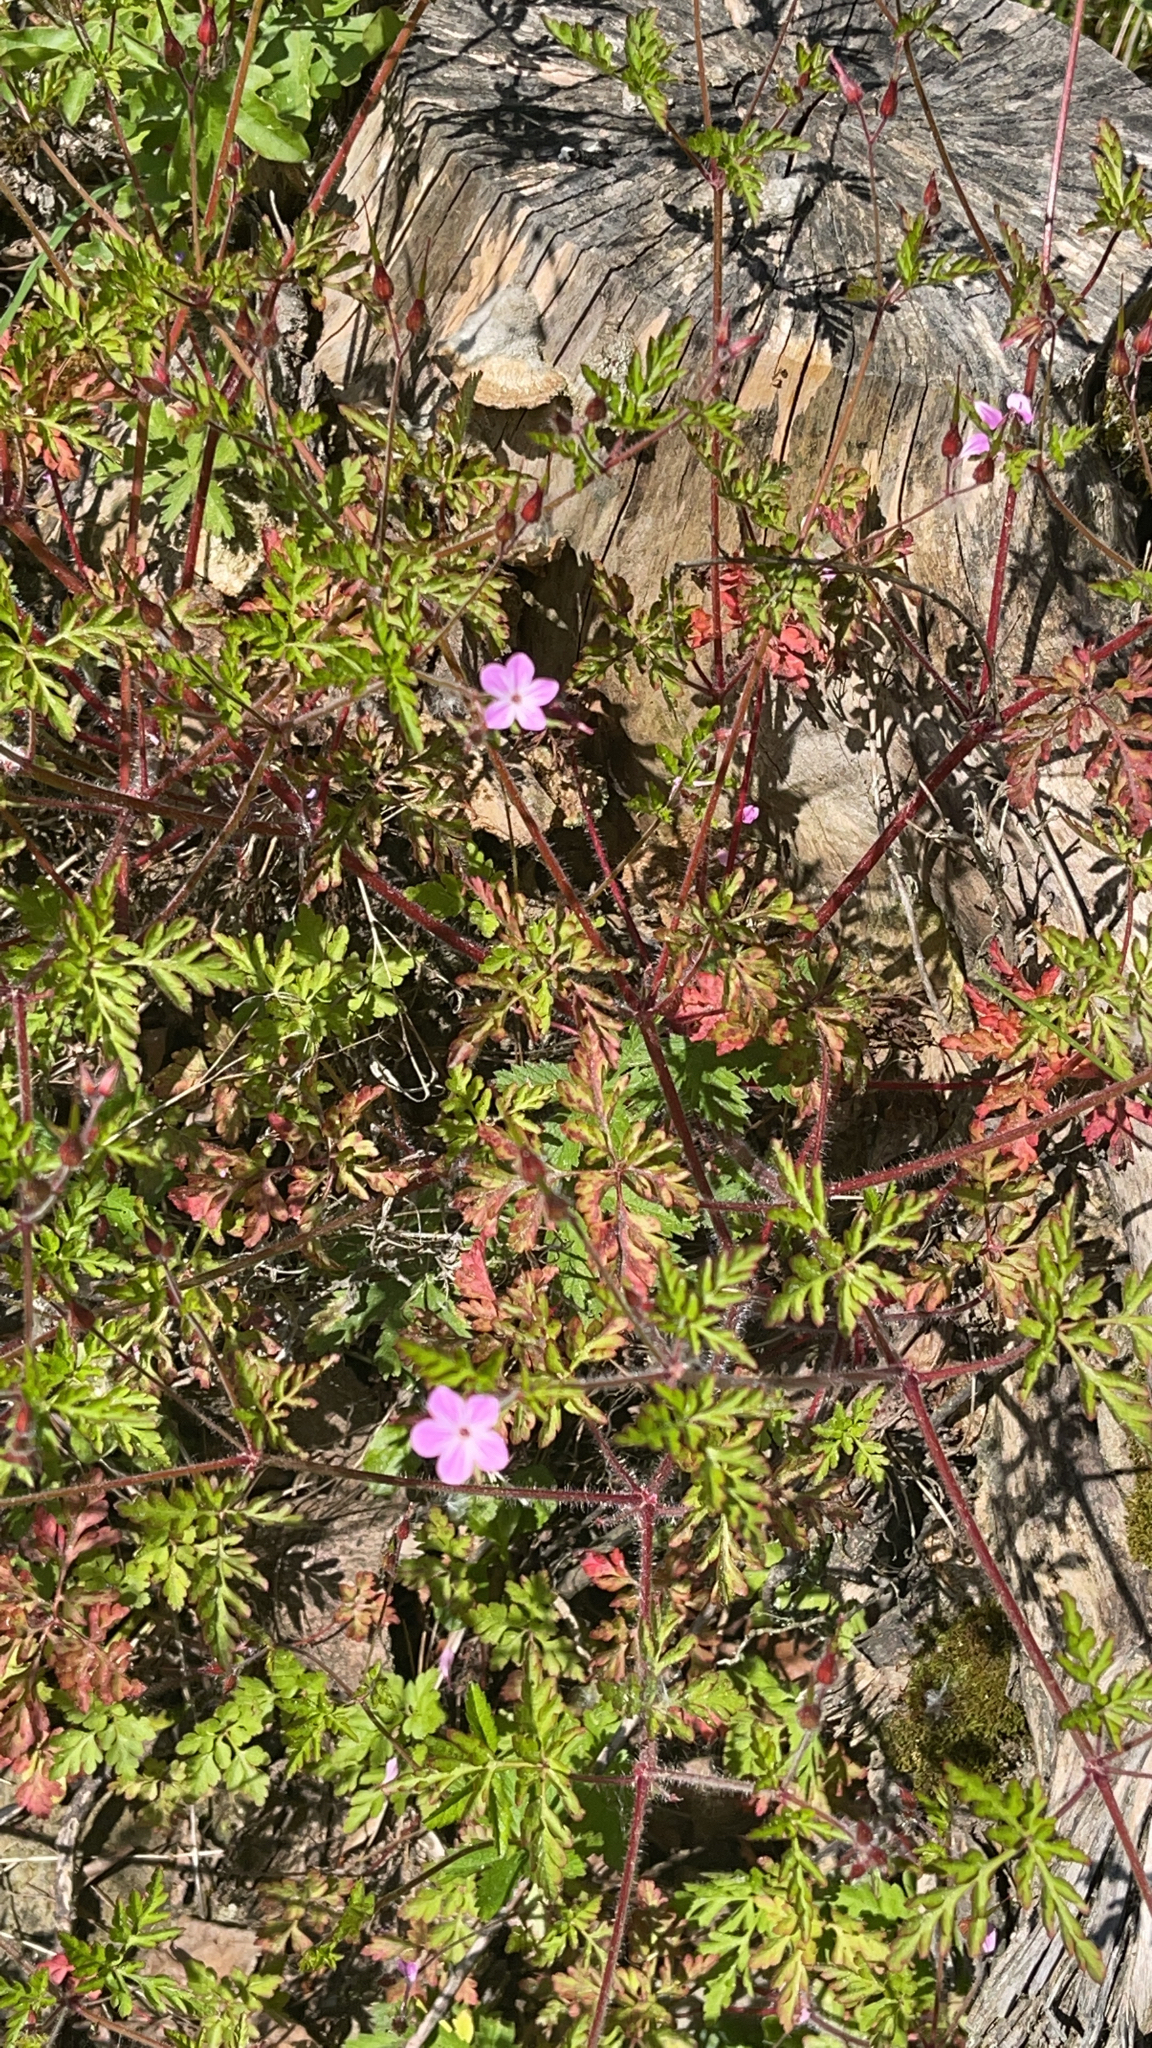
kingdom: Plantae
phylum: Tracheophyta
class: Magnoliopsida
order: Geraniales
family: Geraniaceae
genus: Geranium
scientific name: Geranium robertianum
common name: Herb-robert
